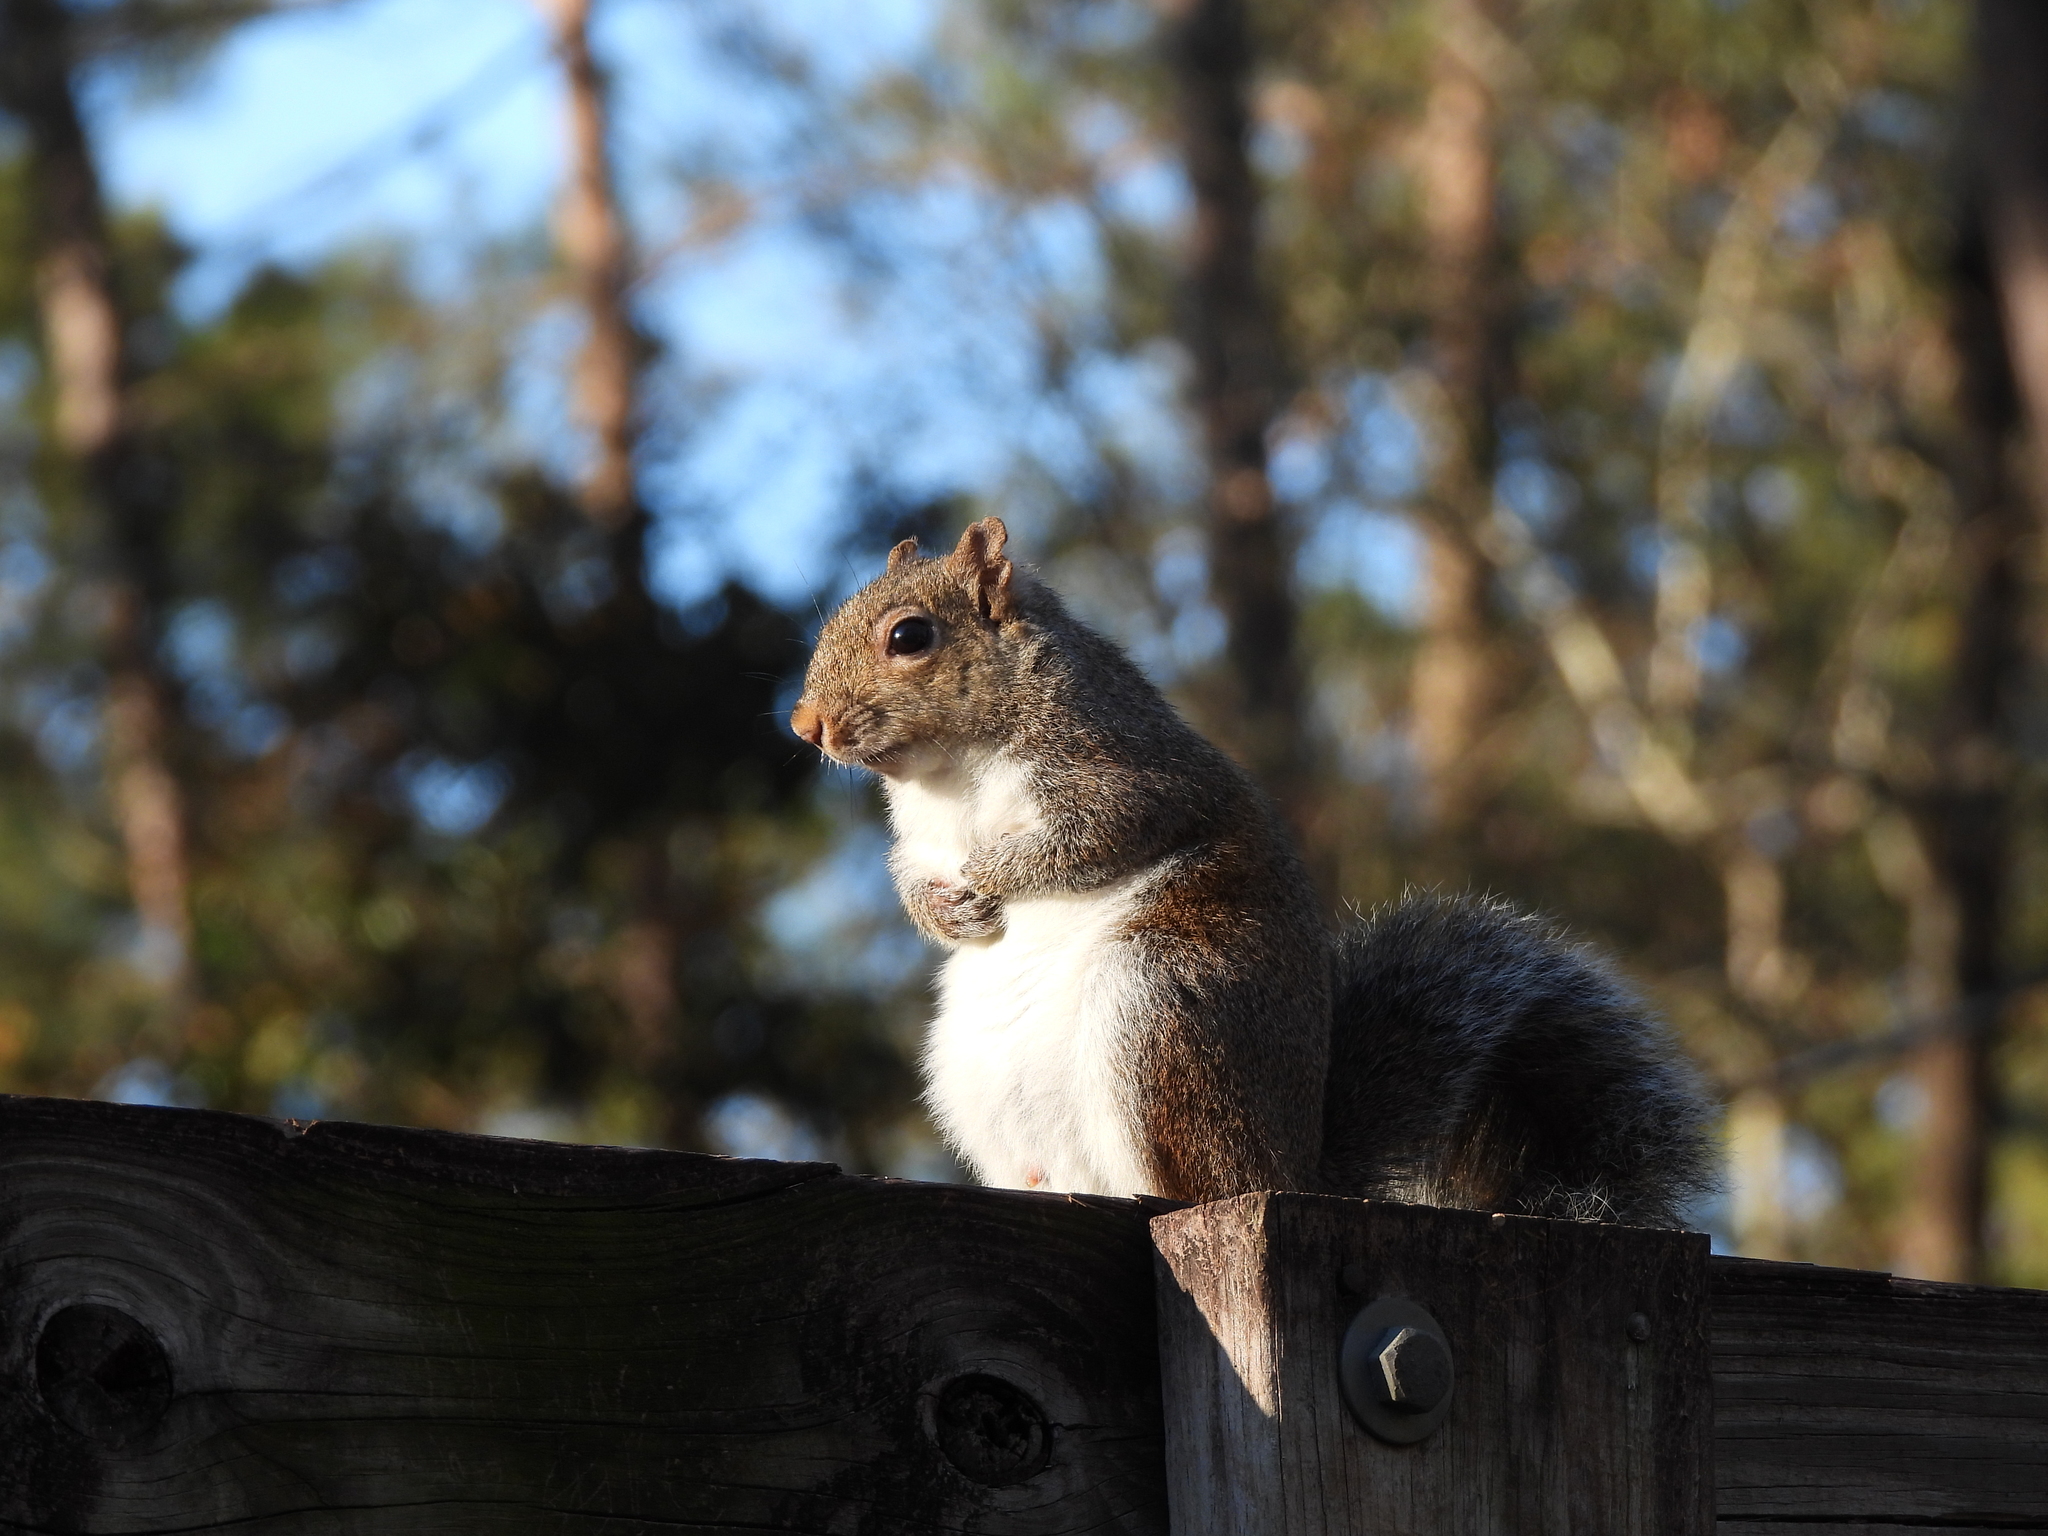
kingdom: Animalia
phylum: Chordata
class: Mammalia
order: Rodentia
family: Sciuridae
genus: Sciurus
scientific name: Sciurus carolinensis
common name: Eastern gray squirrel
